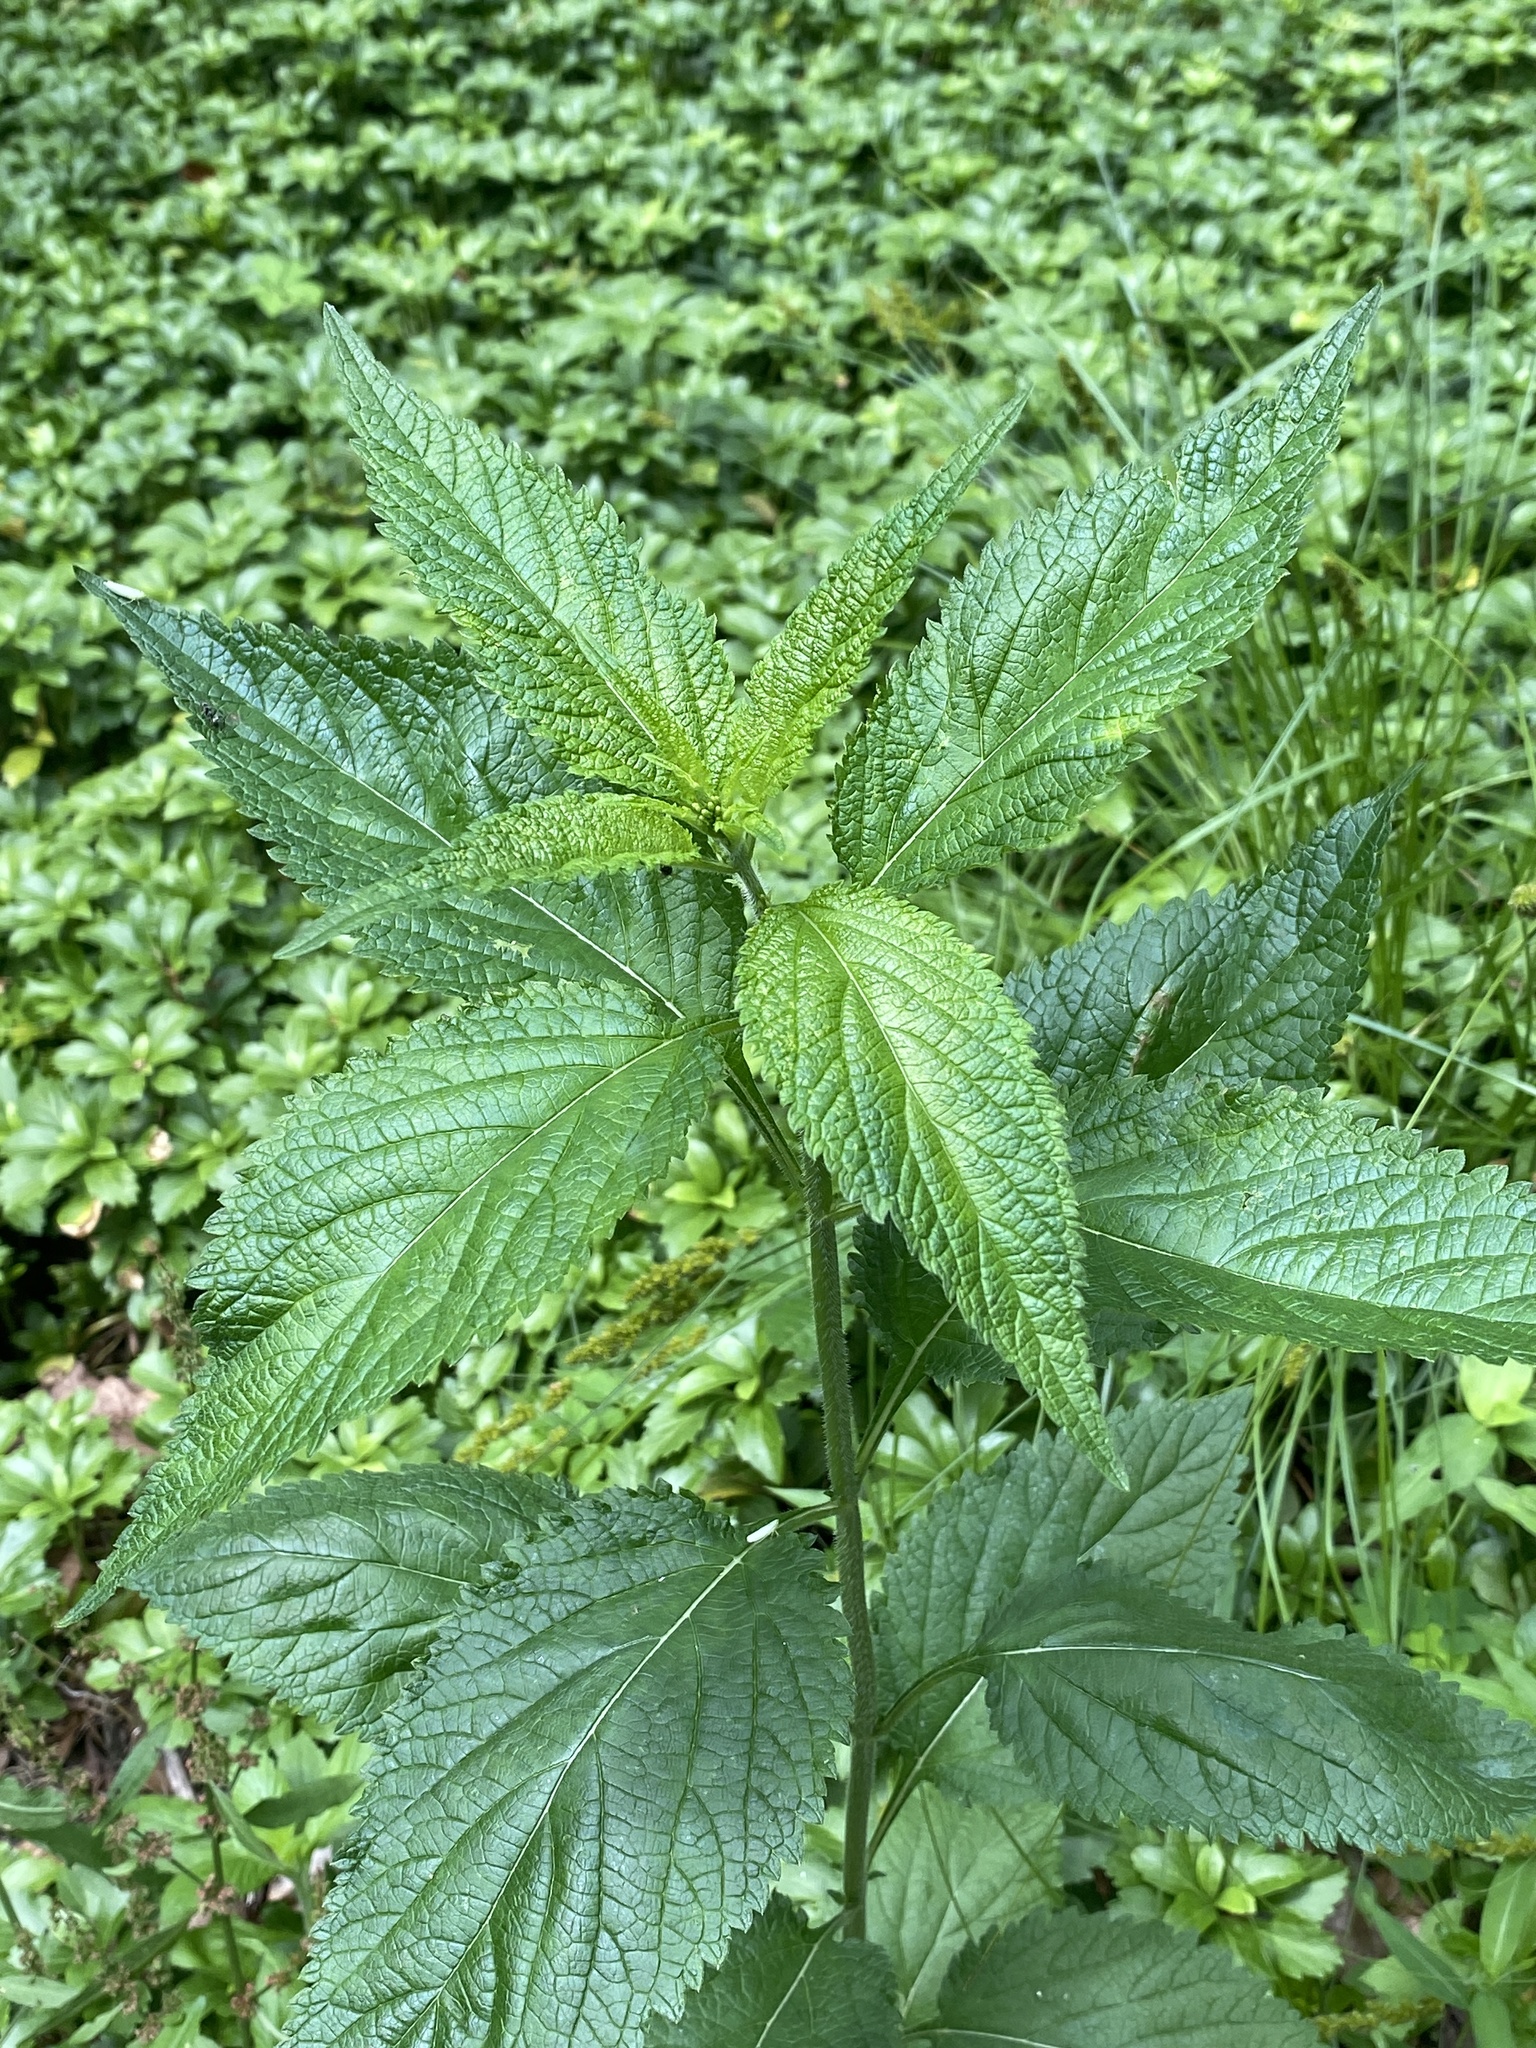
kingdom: Plantae
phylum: Tracheophyta
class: Magnoliopsida
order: Lamiales
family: Verbenaceae
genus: Verbena
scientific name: Verbena urticifolia
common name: Nettle-leaved vervain
